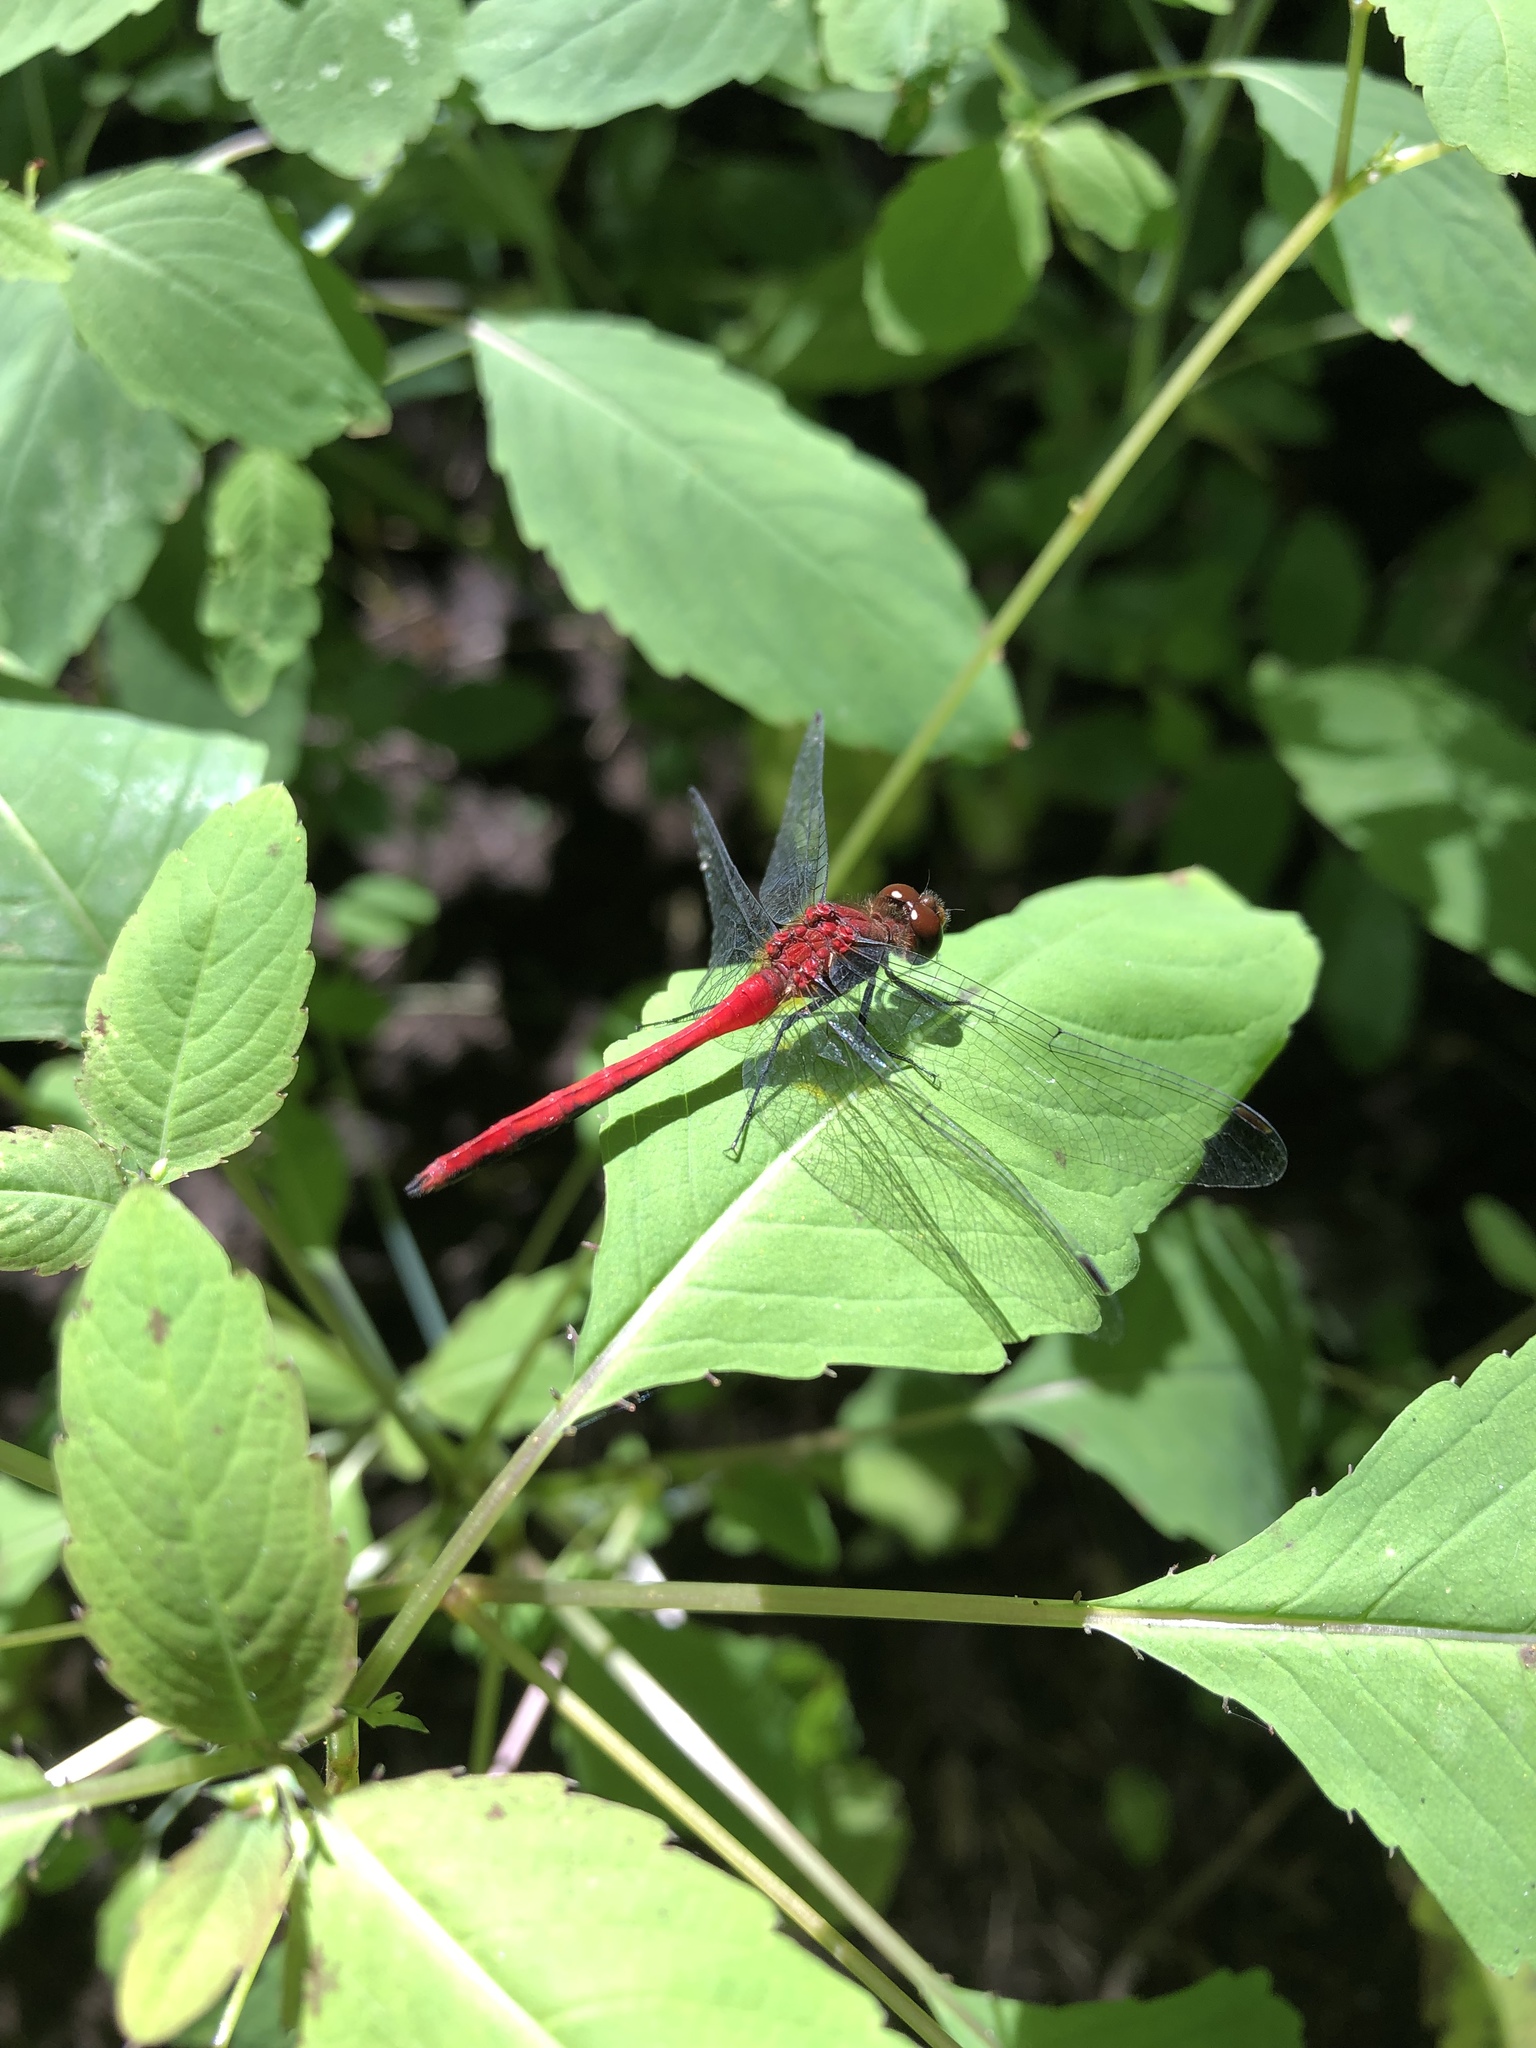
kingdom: Animalia
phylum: Arthropoda
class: Insecta
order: Odonata
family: Libellulidae
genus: Sympetrum
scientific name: Sympetrum
